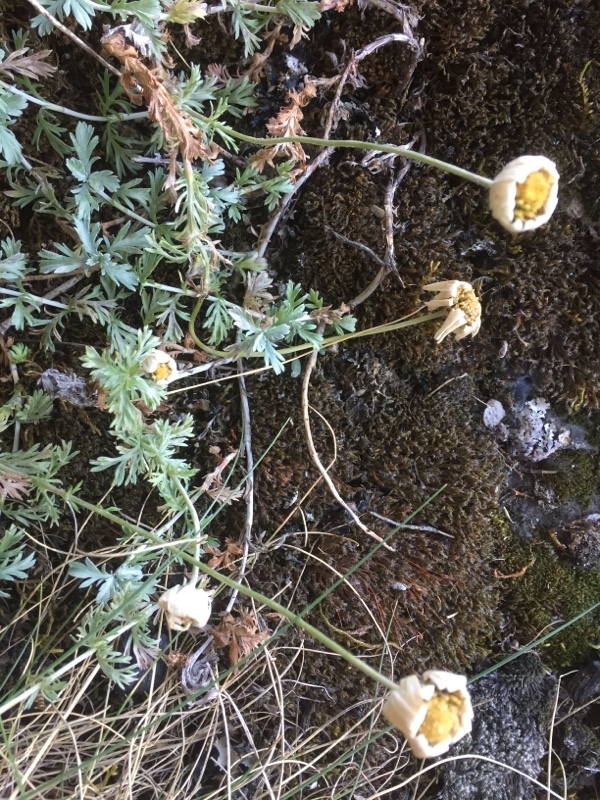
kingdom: Plantae
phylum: Tracheophyta
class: Magnoliopsida
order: Asterales
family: Asteraceae
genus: Phalacrocarpum
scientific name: Phalacrocarpum oppositifolium
